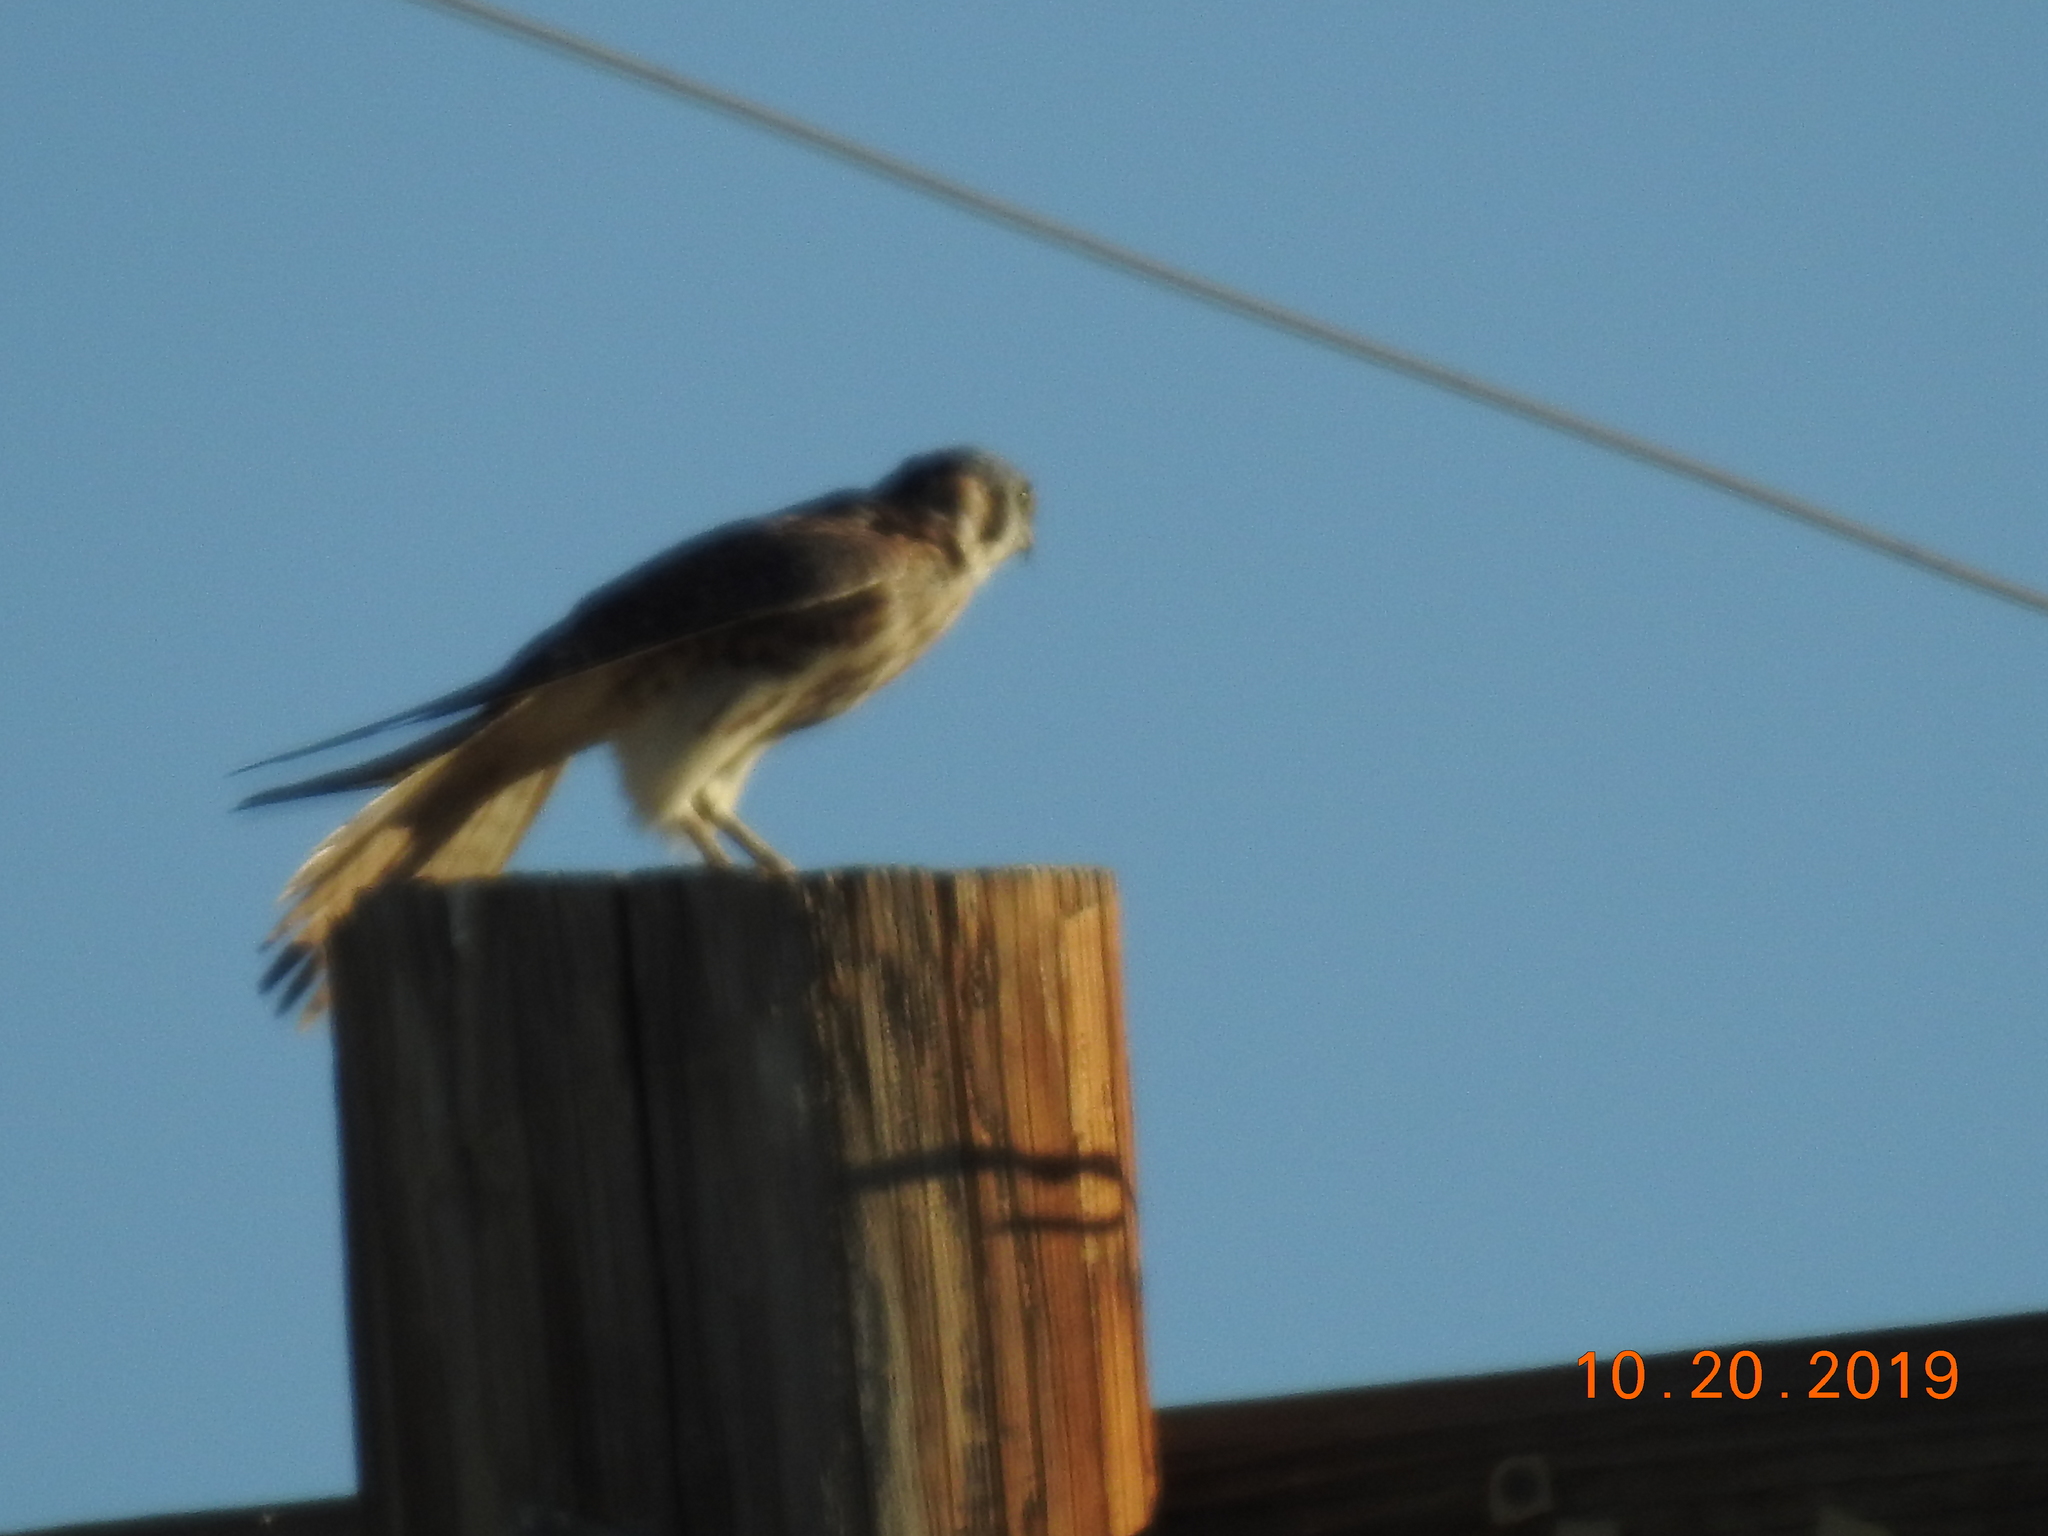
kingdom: Animalia
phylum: Chordata
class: Aves
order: Falconiformes
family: Falconidae
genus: Falco
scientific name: Falco sparverius
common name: American kestrel
